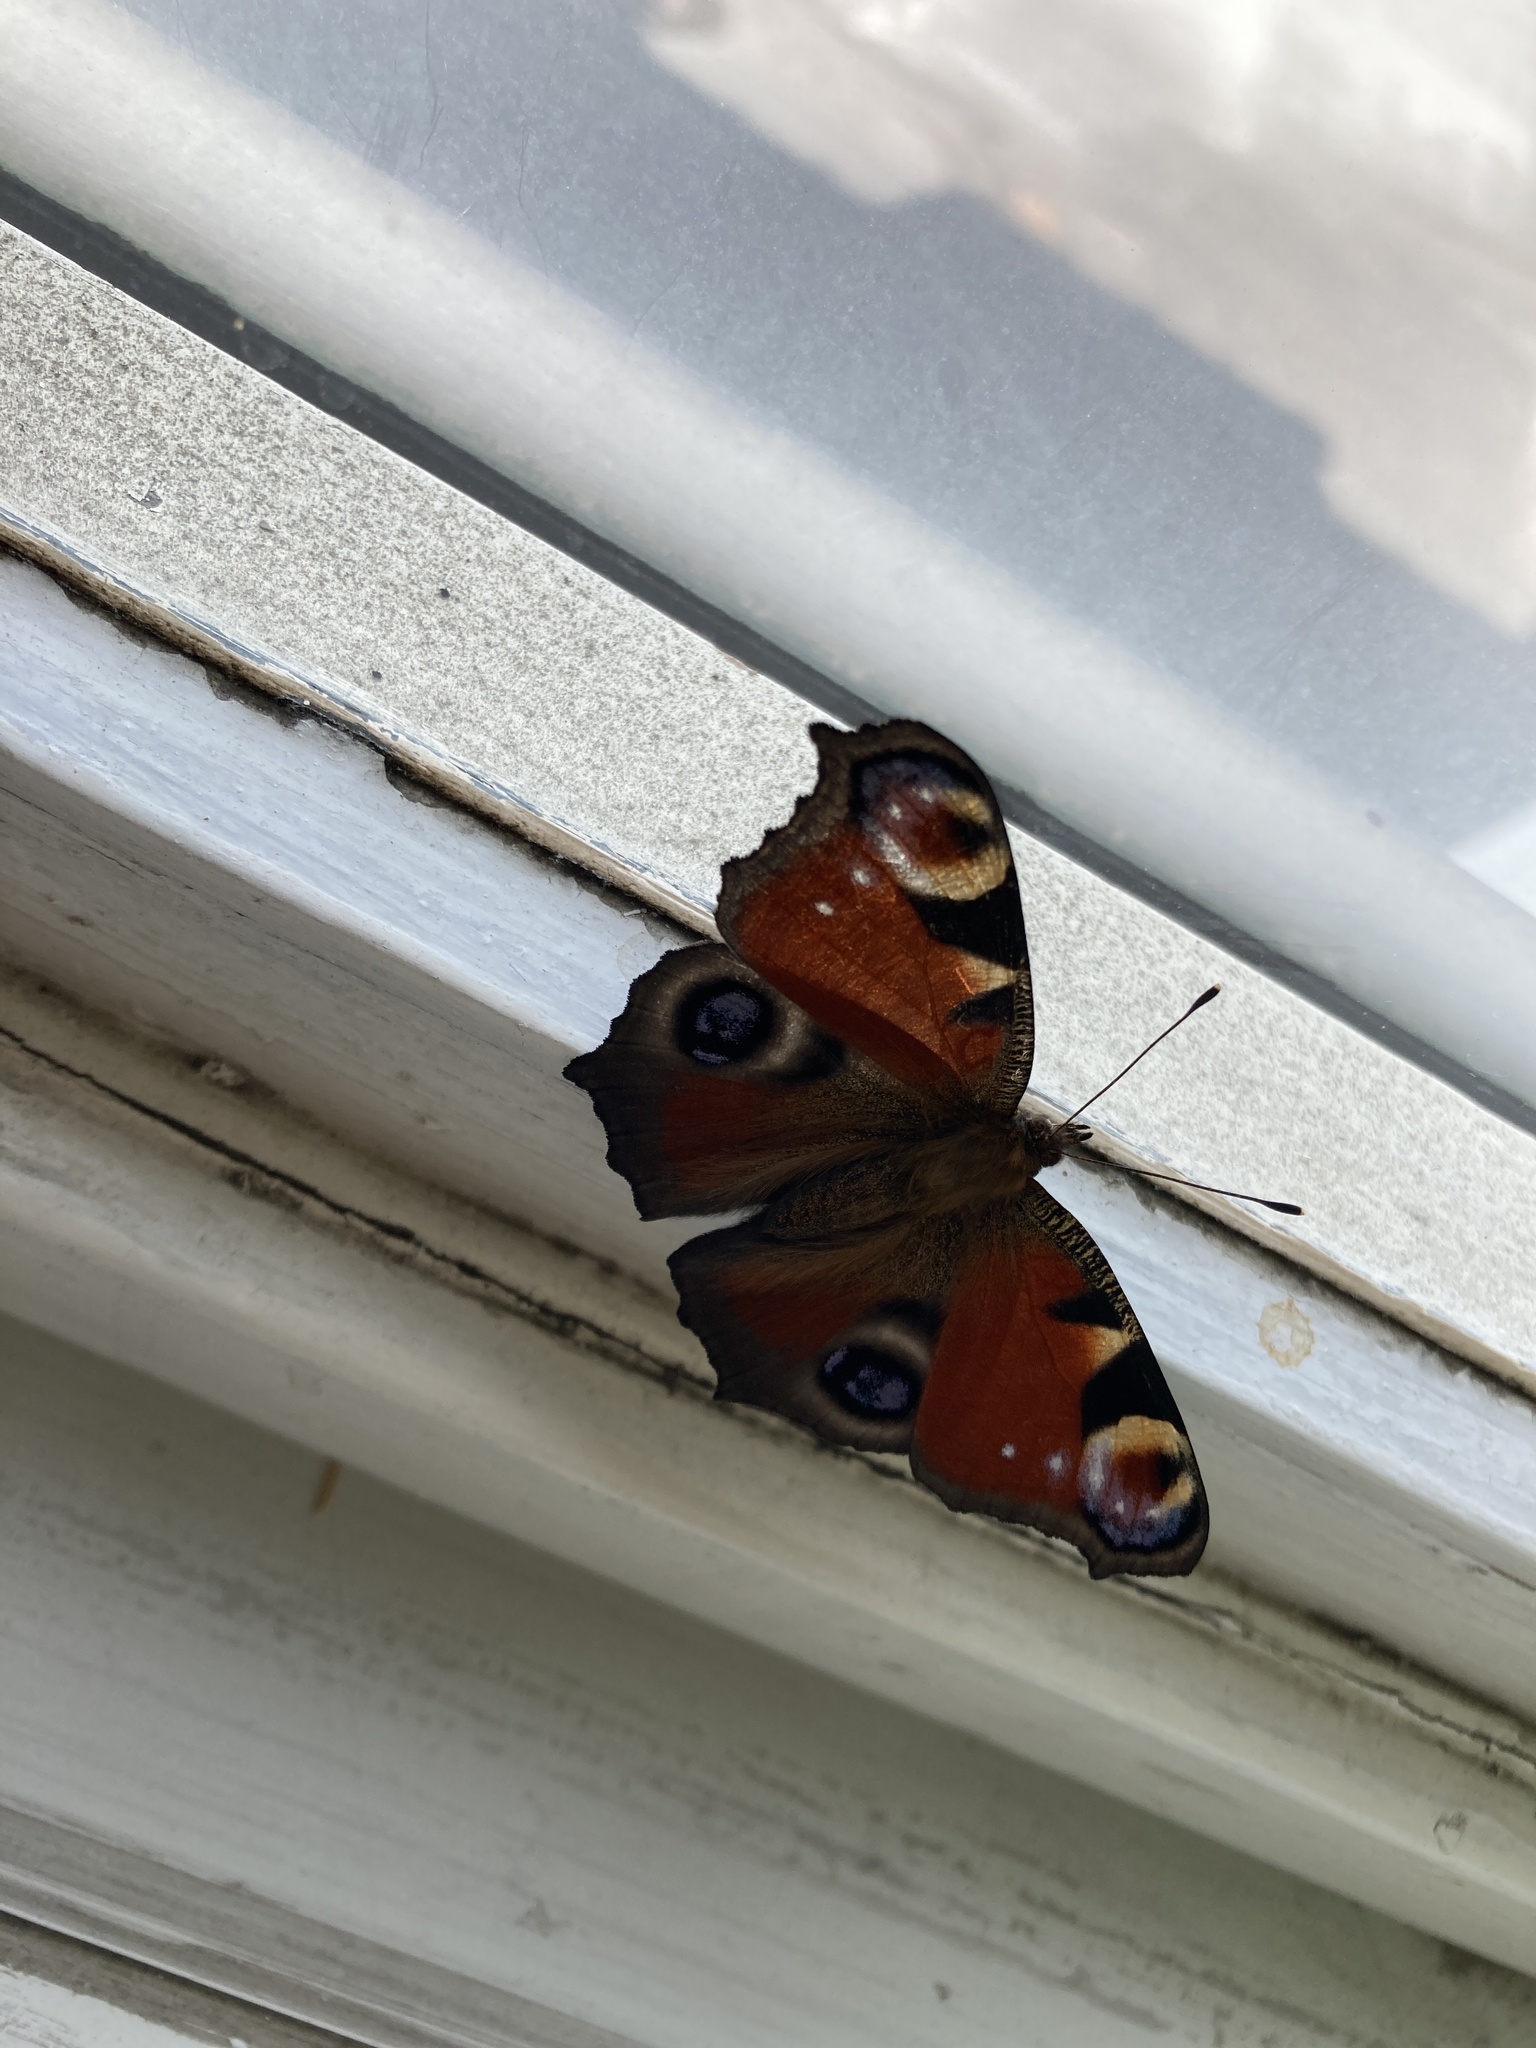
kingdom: Animalia
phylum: Arthropoda
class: Insecta
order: Lepidoptera
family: Nymphalidae
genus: Aglais
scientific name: Aglais io
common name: Peacock
